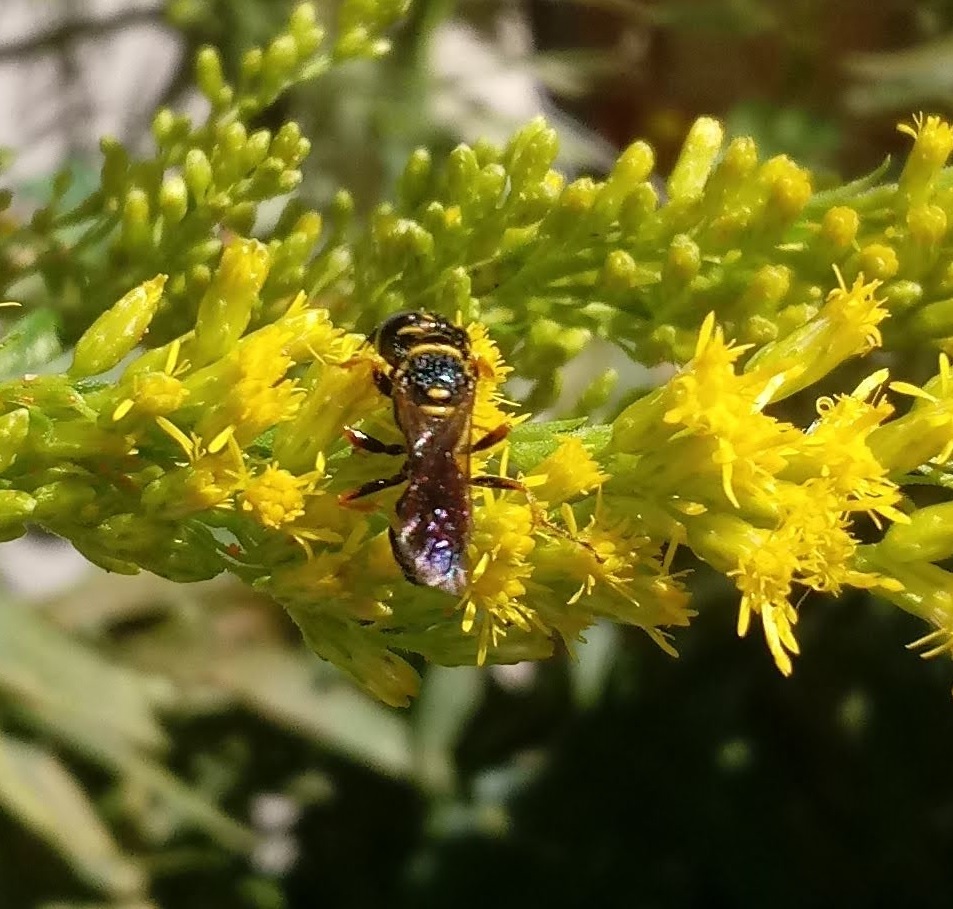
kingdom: Animalia
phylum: Arthropoda
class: Insecta
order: Hymenoptera
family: Crabronidae
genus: Philanthus
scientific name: Philanthus gibbosus
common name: Humped beewolf
